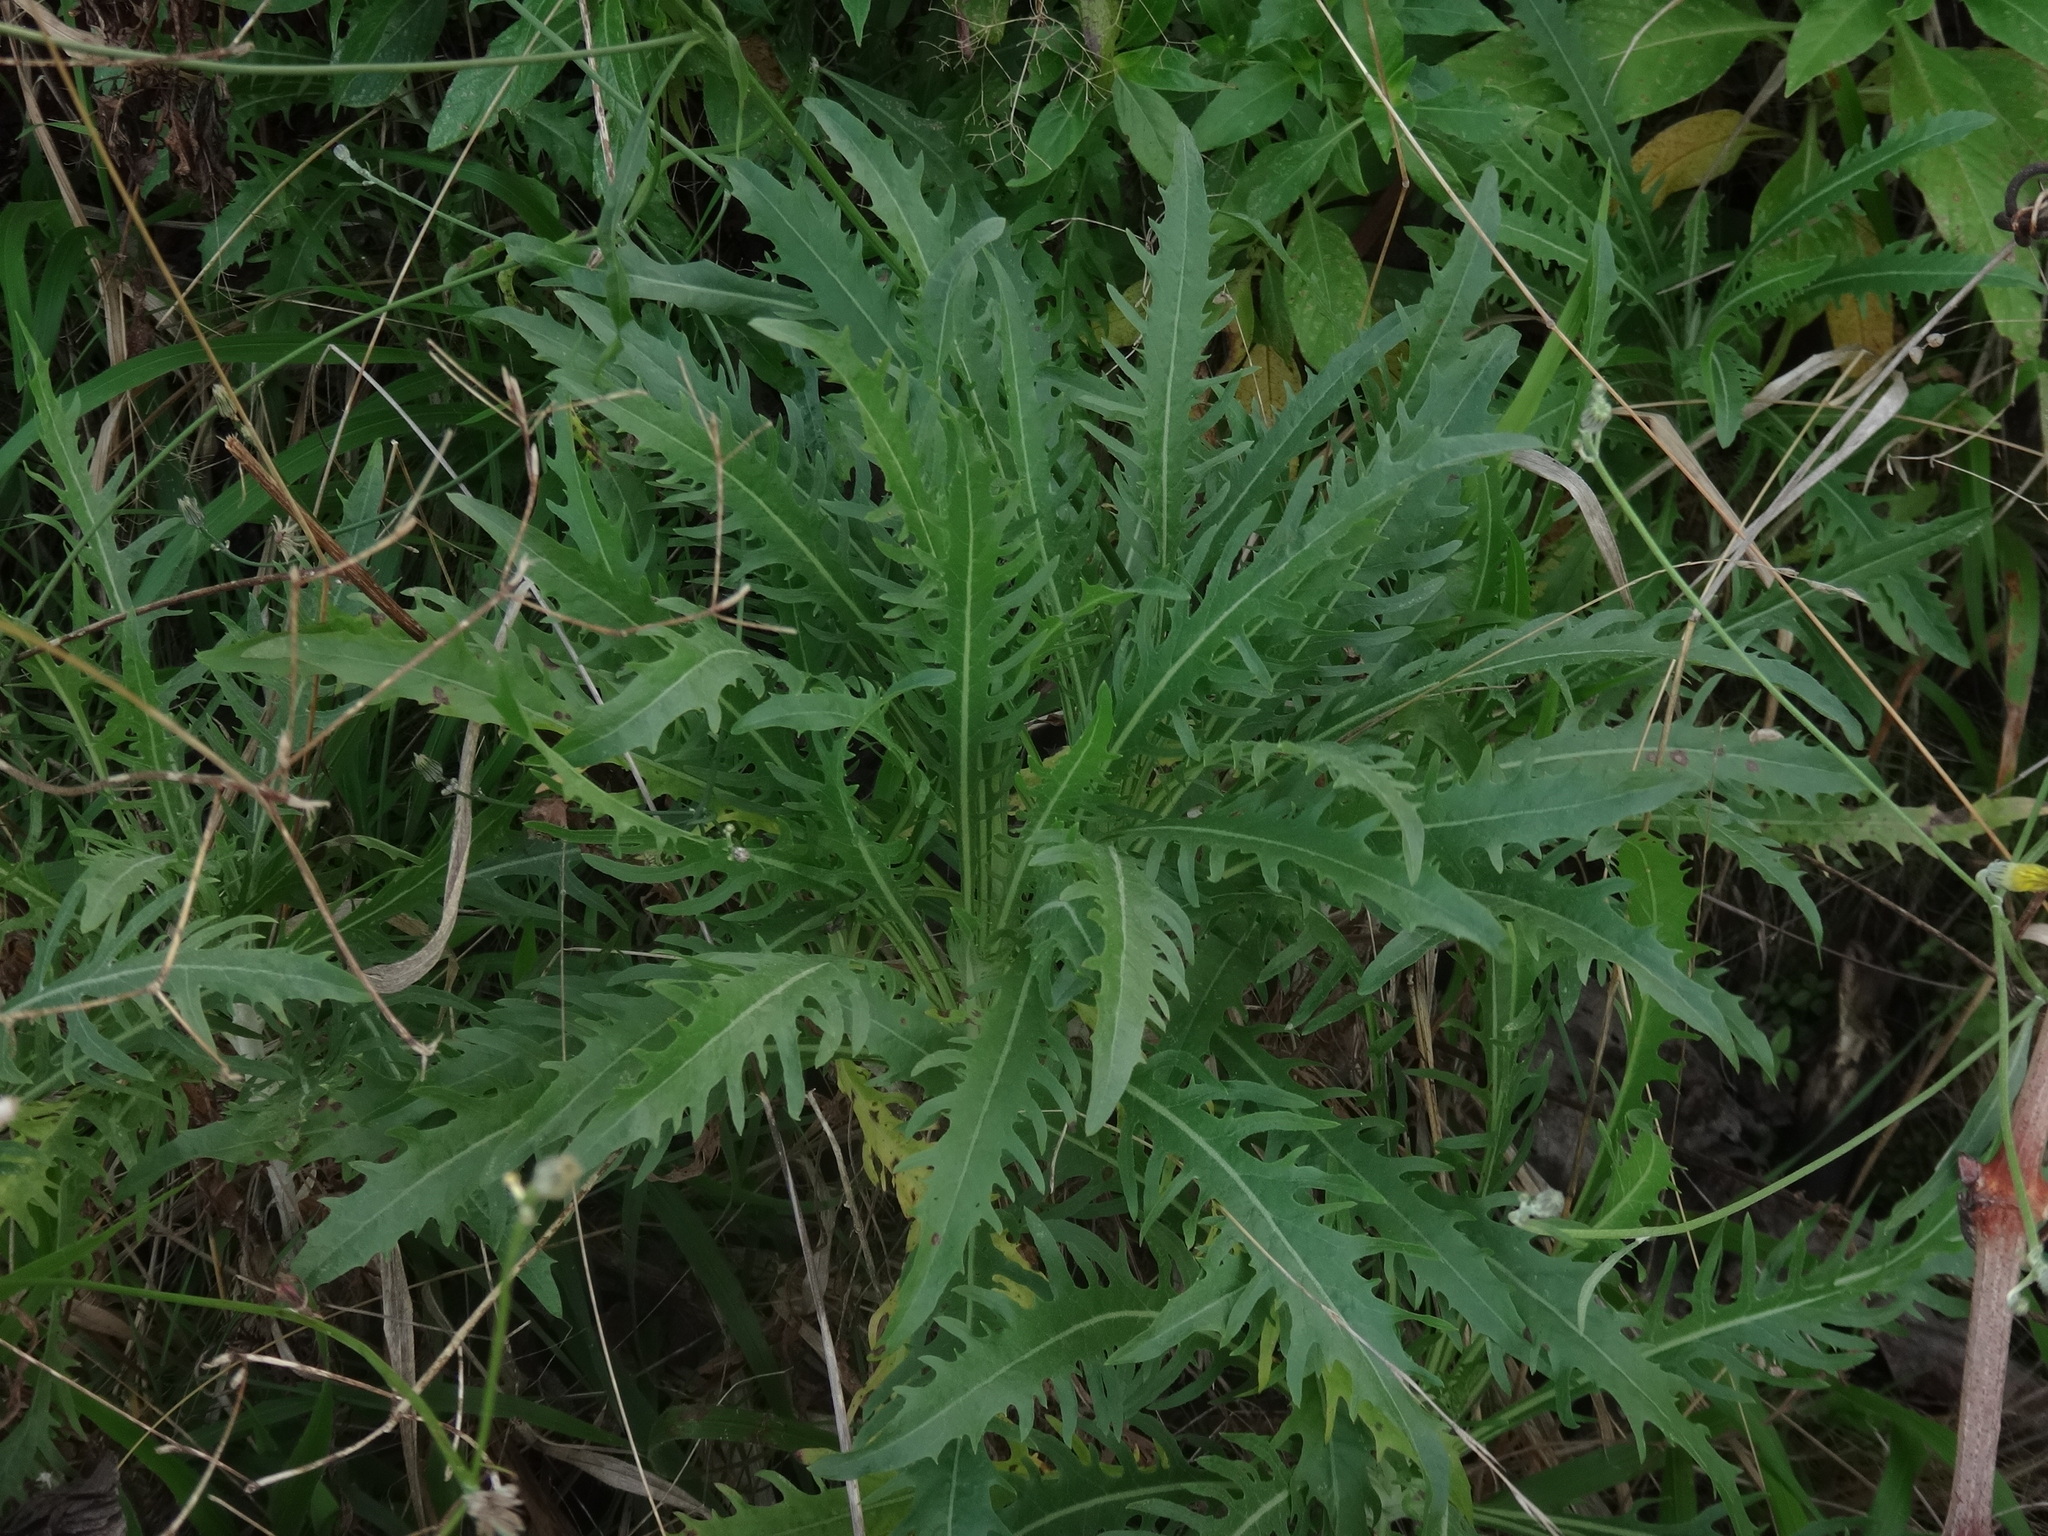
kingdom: Plantae
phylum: Tracheophyta
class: Magnoliopsida
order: Asterales
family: Asteraceae
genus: Tolpis
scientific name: Tolpis laciniata
